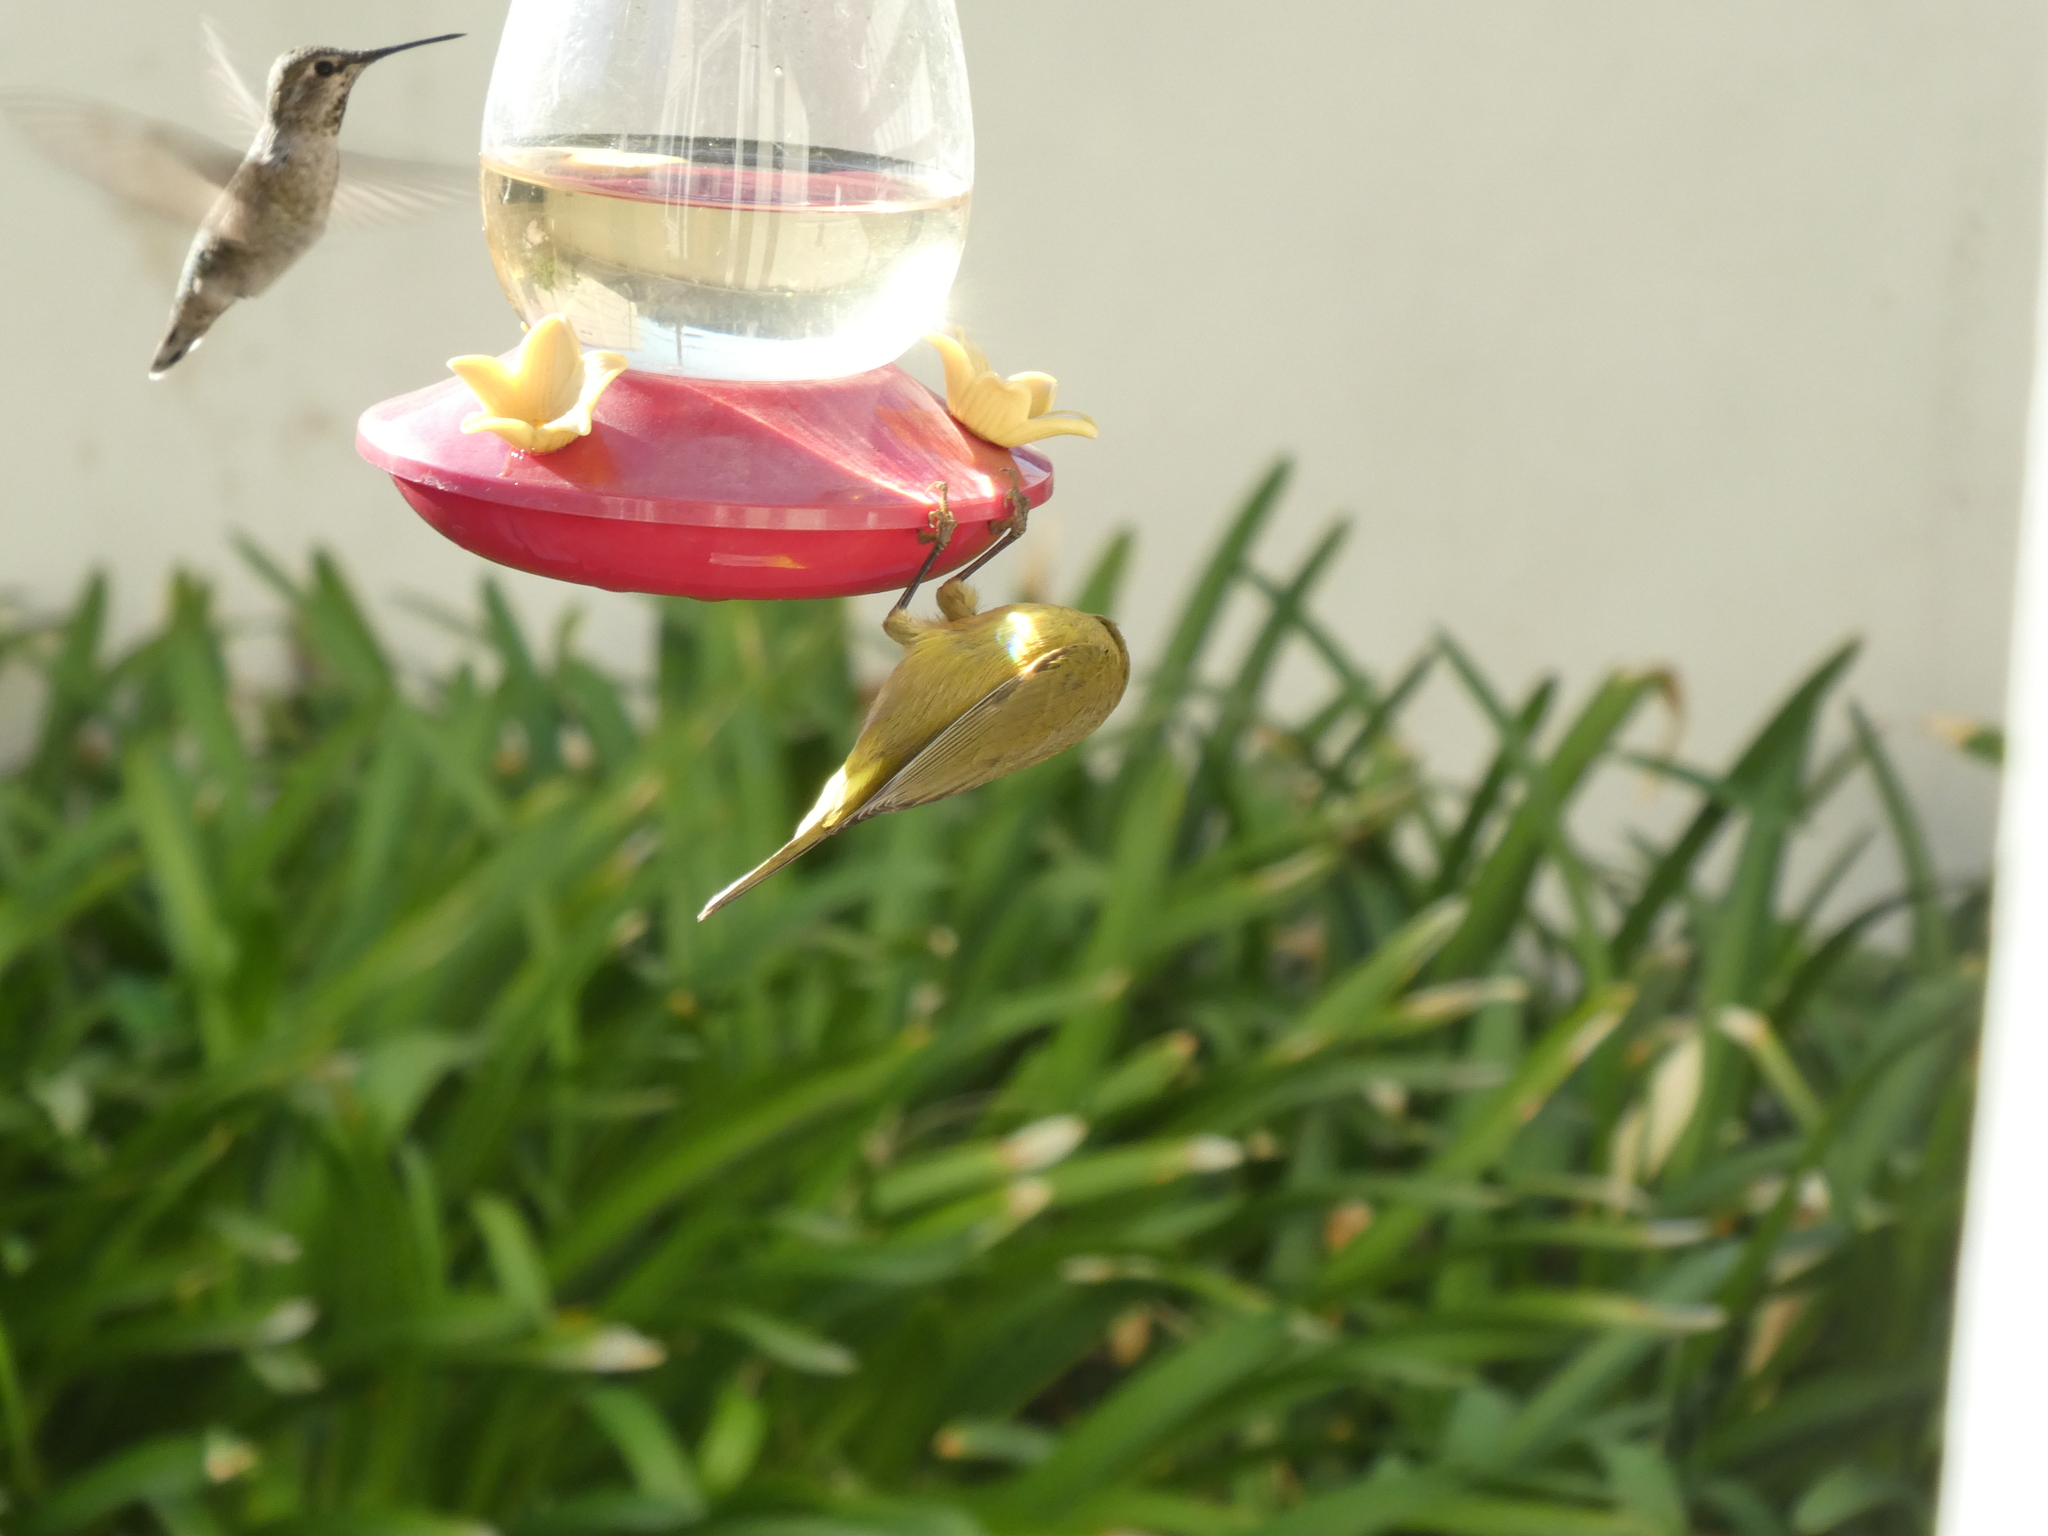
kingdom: Animalia
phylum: Chordata
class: Aves
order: Apodiformes
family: Trochilidae
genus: Calypte
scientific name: Calypte anna
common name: Anna's hummingbird
